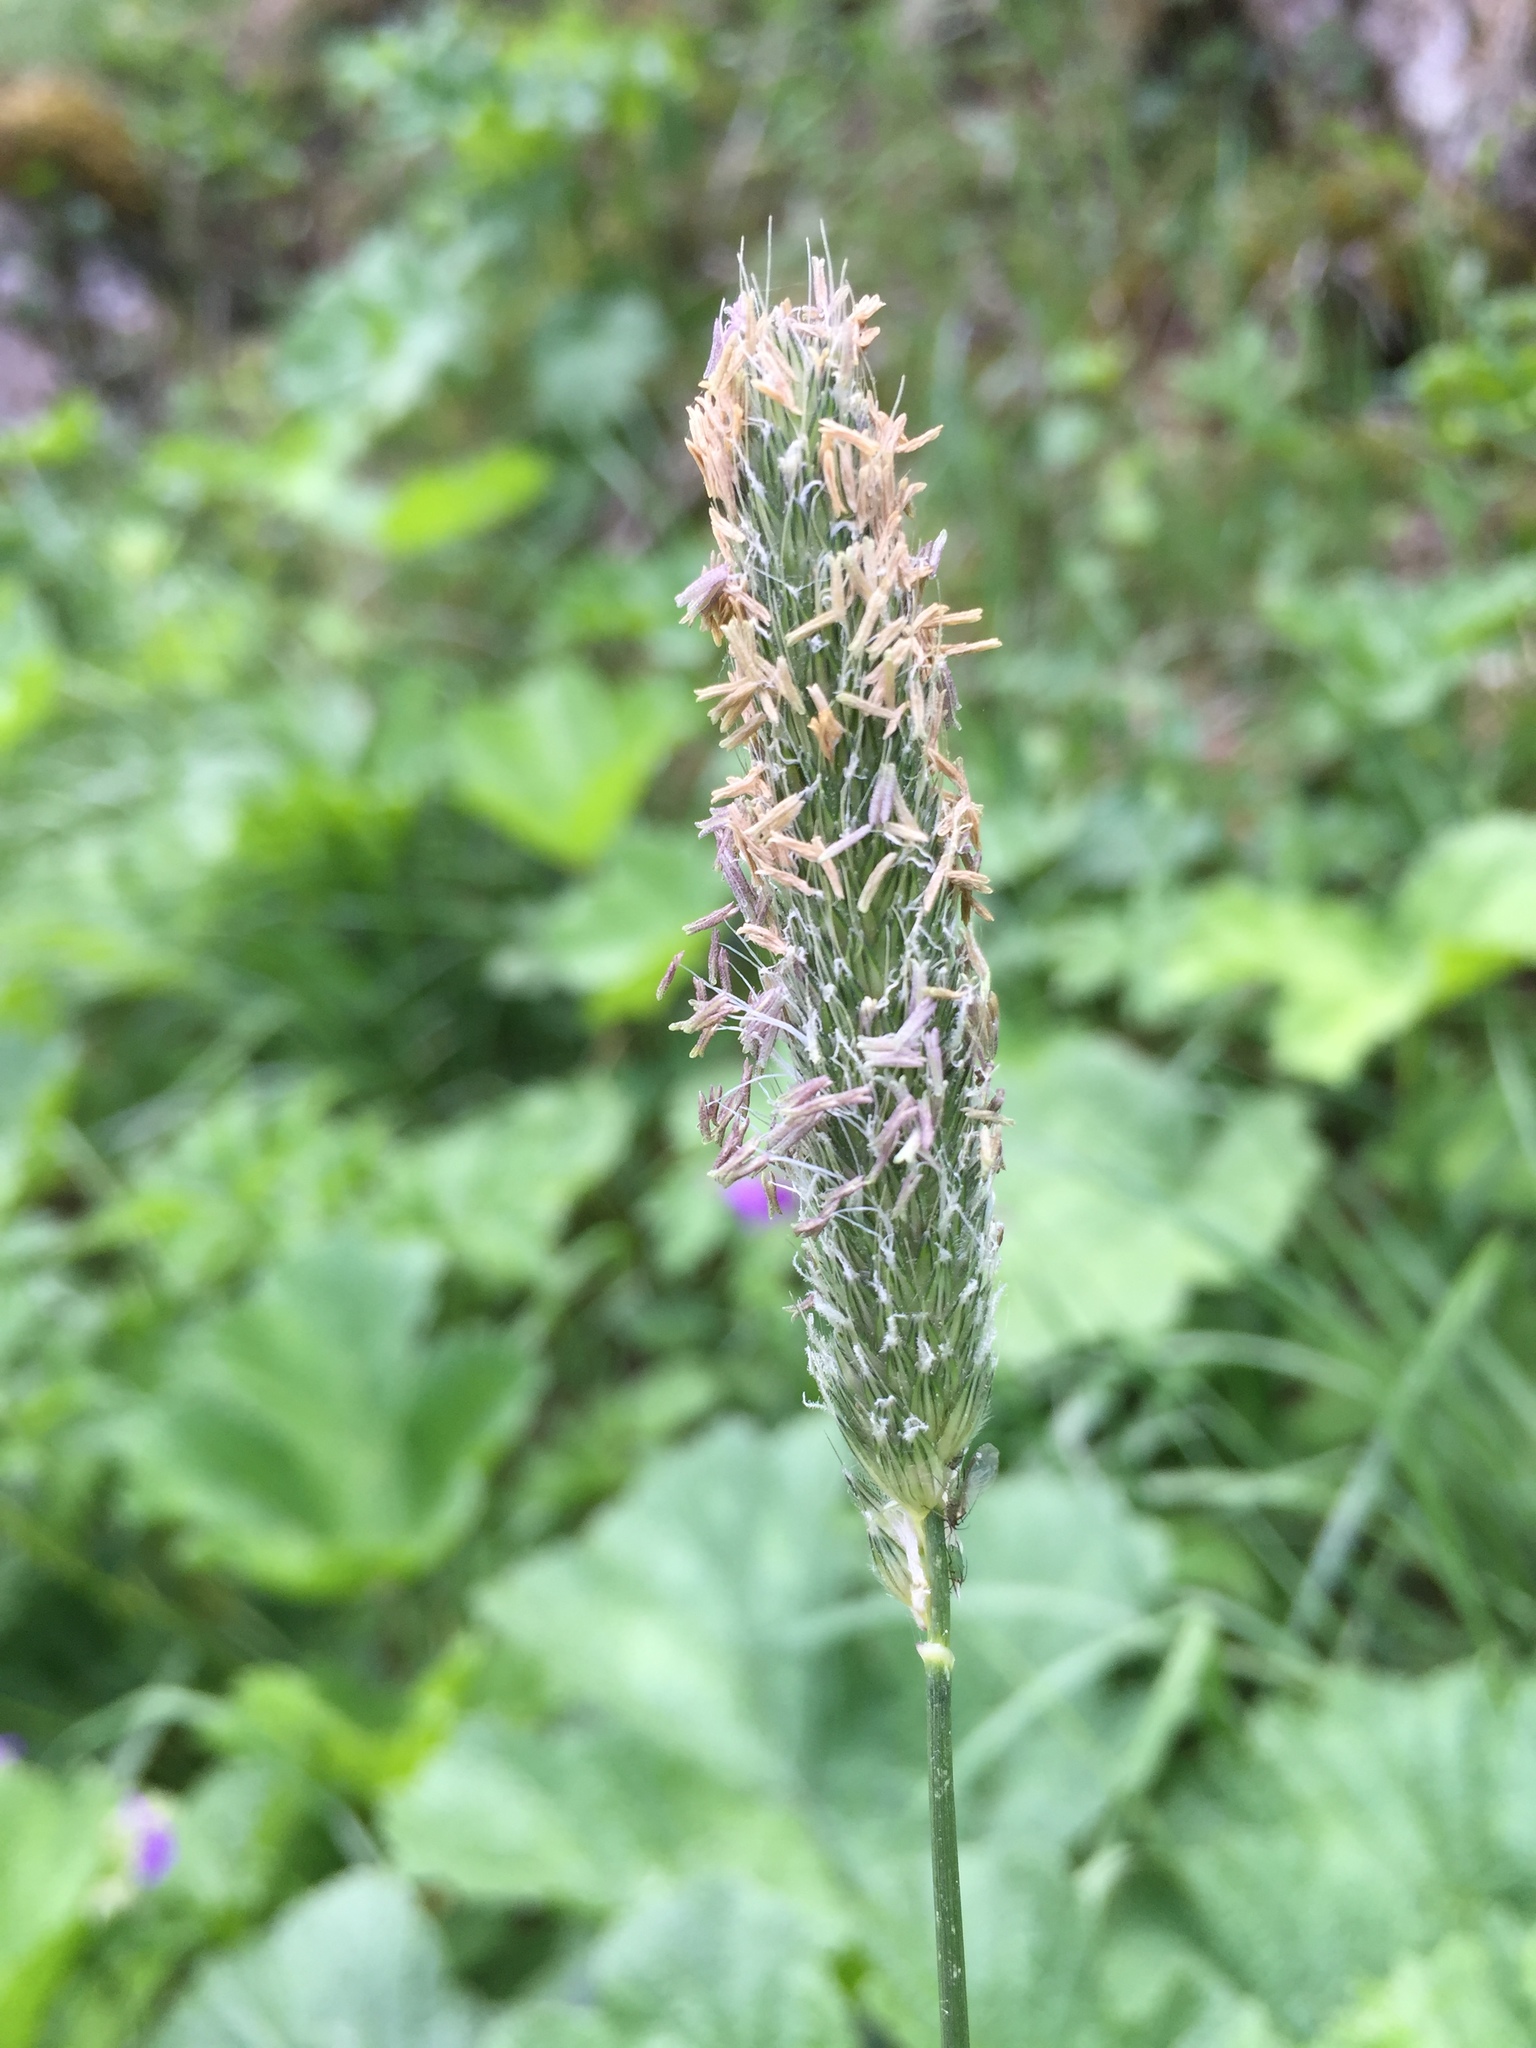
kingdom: Plantae
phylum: Tracheophyta
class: Liliopsida
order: Poales
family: Poaceae
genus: Alopecurus
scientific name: Alopecurus pratensis
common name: Meadow foxtail
